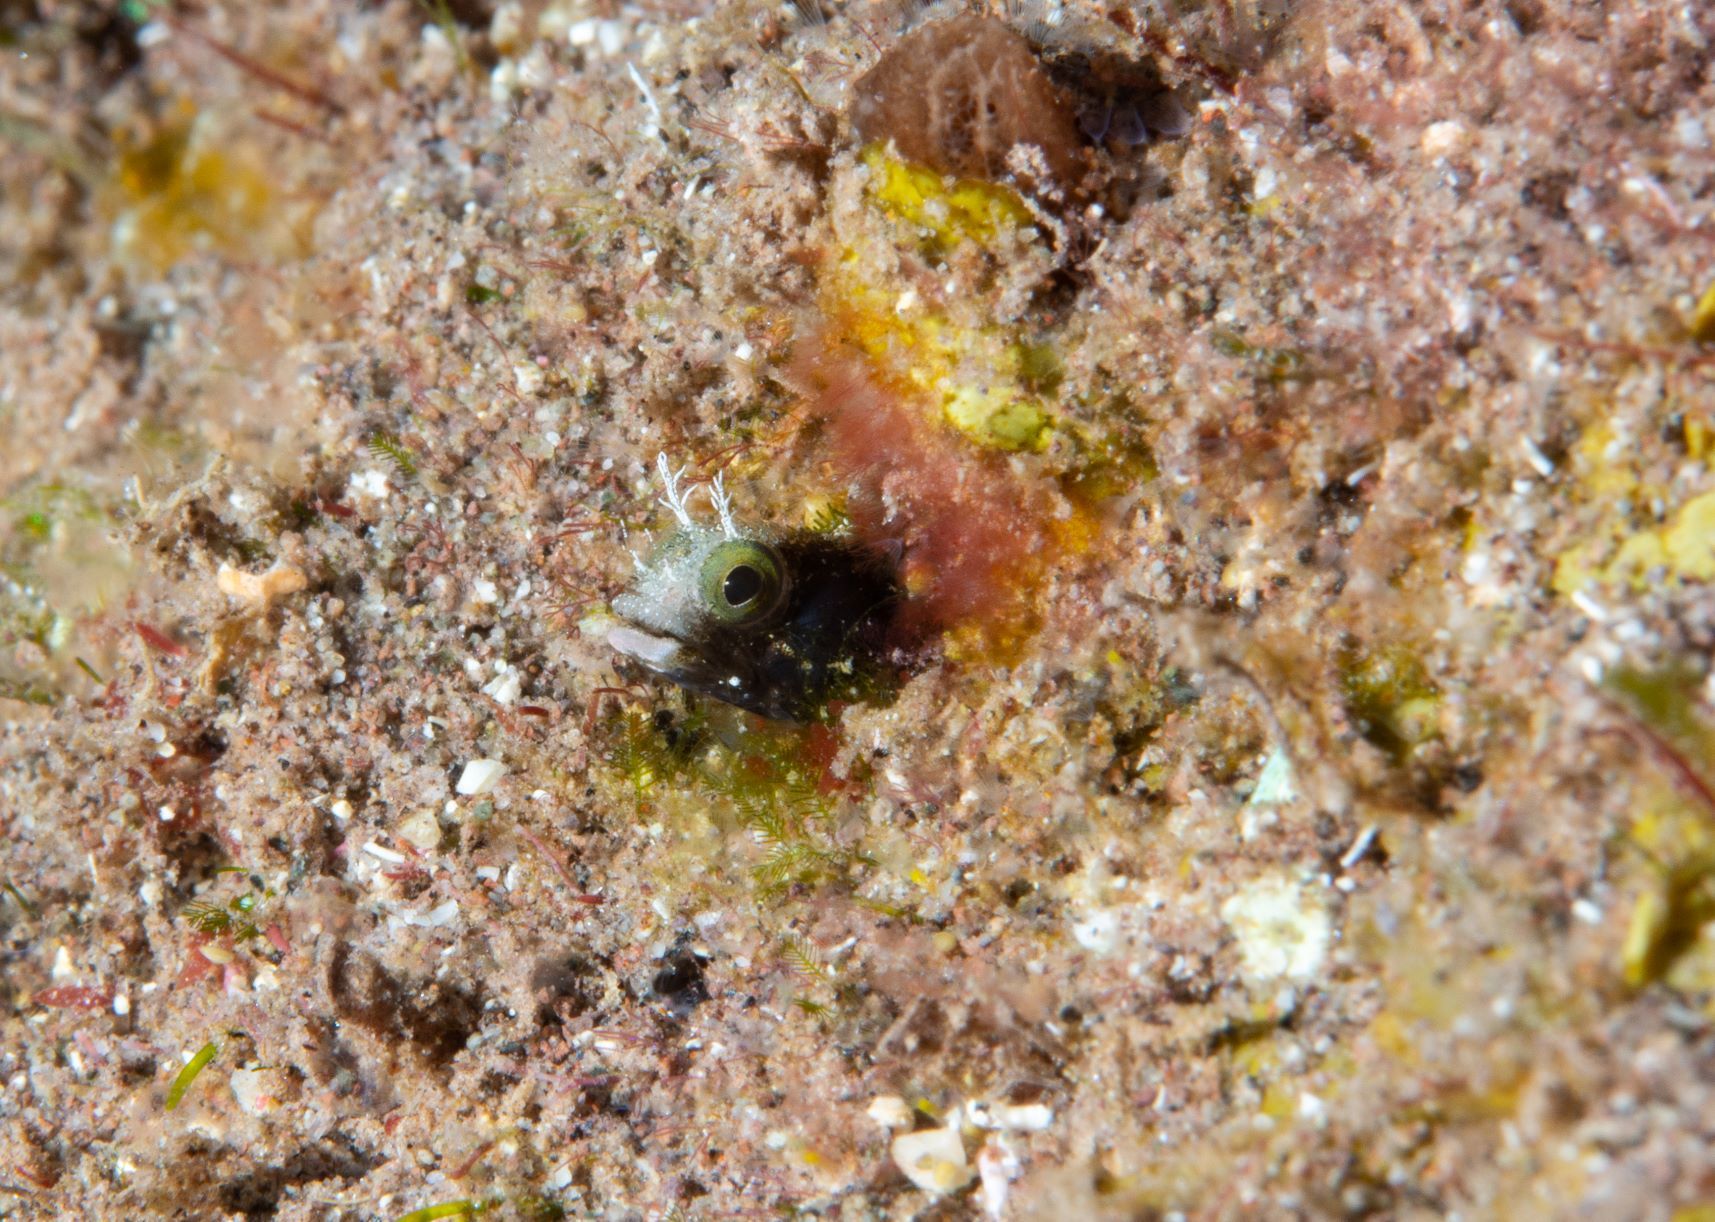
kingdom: Animalia
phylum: Chordata
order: Perciformes
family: Chaenopsidae
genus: Acanthemblemaria
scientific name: Acanthemblemaria spinosa
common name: Spinyhead blenny
